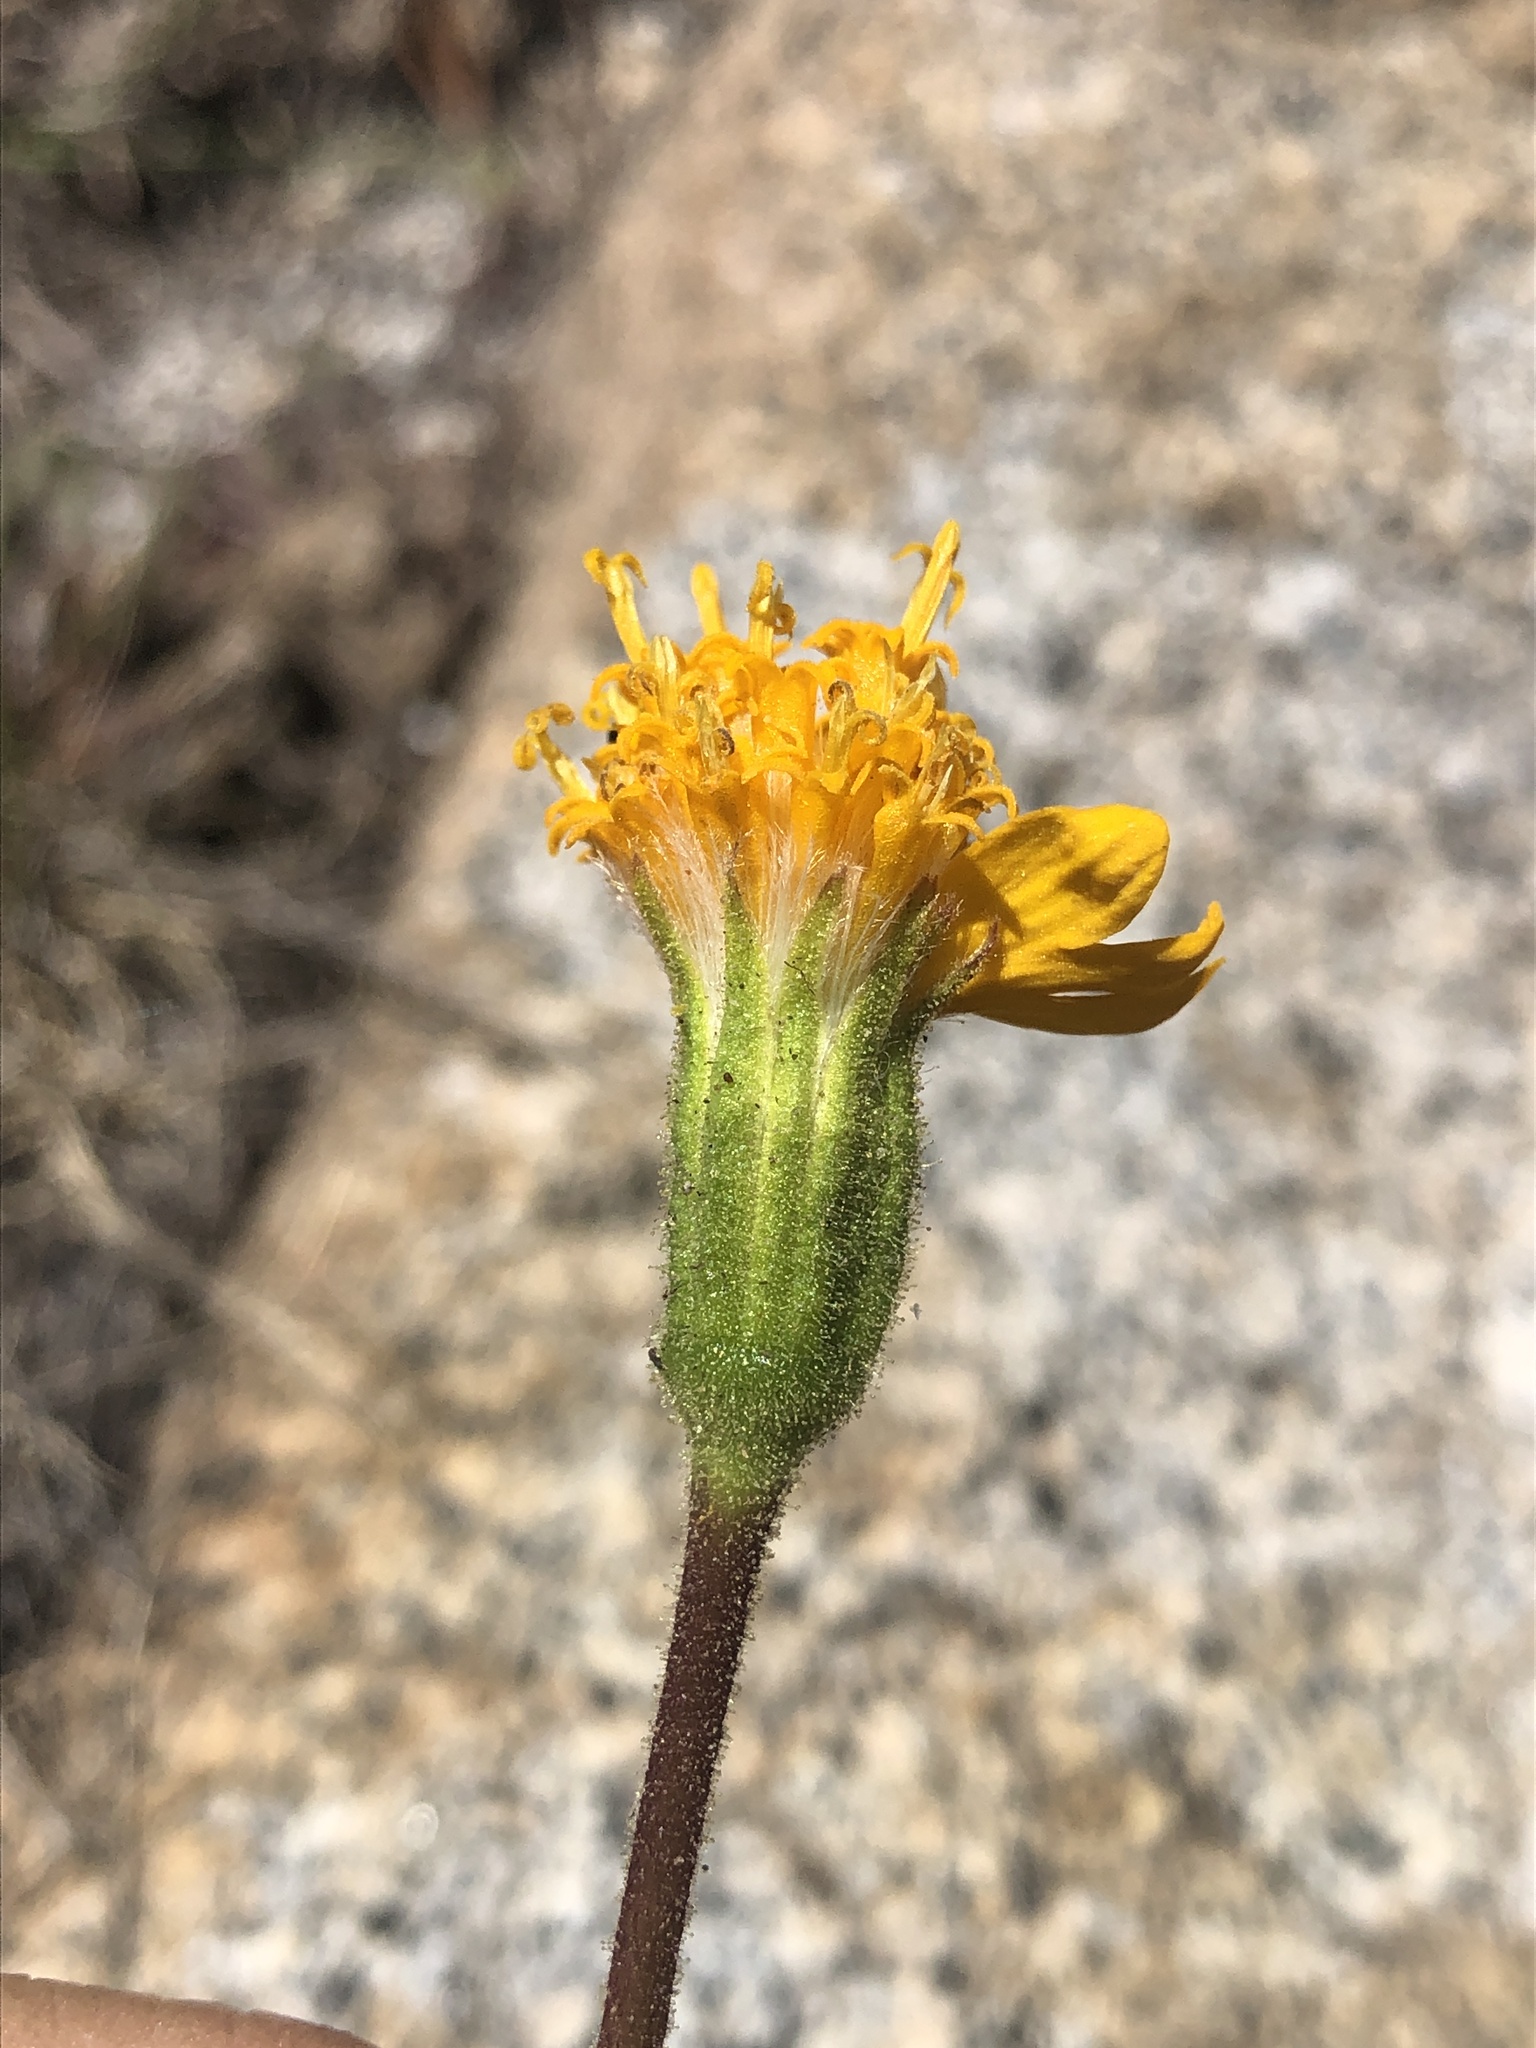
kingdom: Plantae
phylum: Tracheophyta
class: Magnoliopsida
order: Asterales
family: Asteraceae
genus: Raillardella
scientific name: Raillardella scaposa
